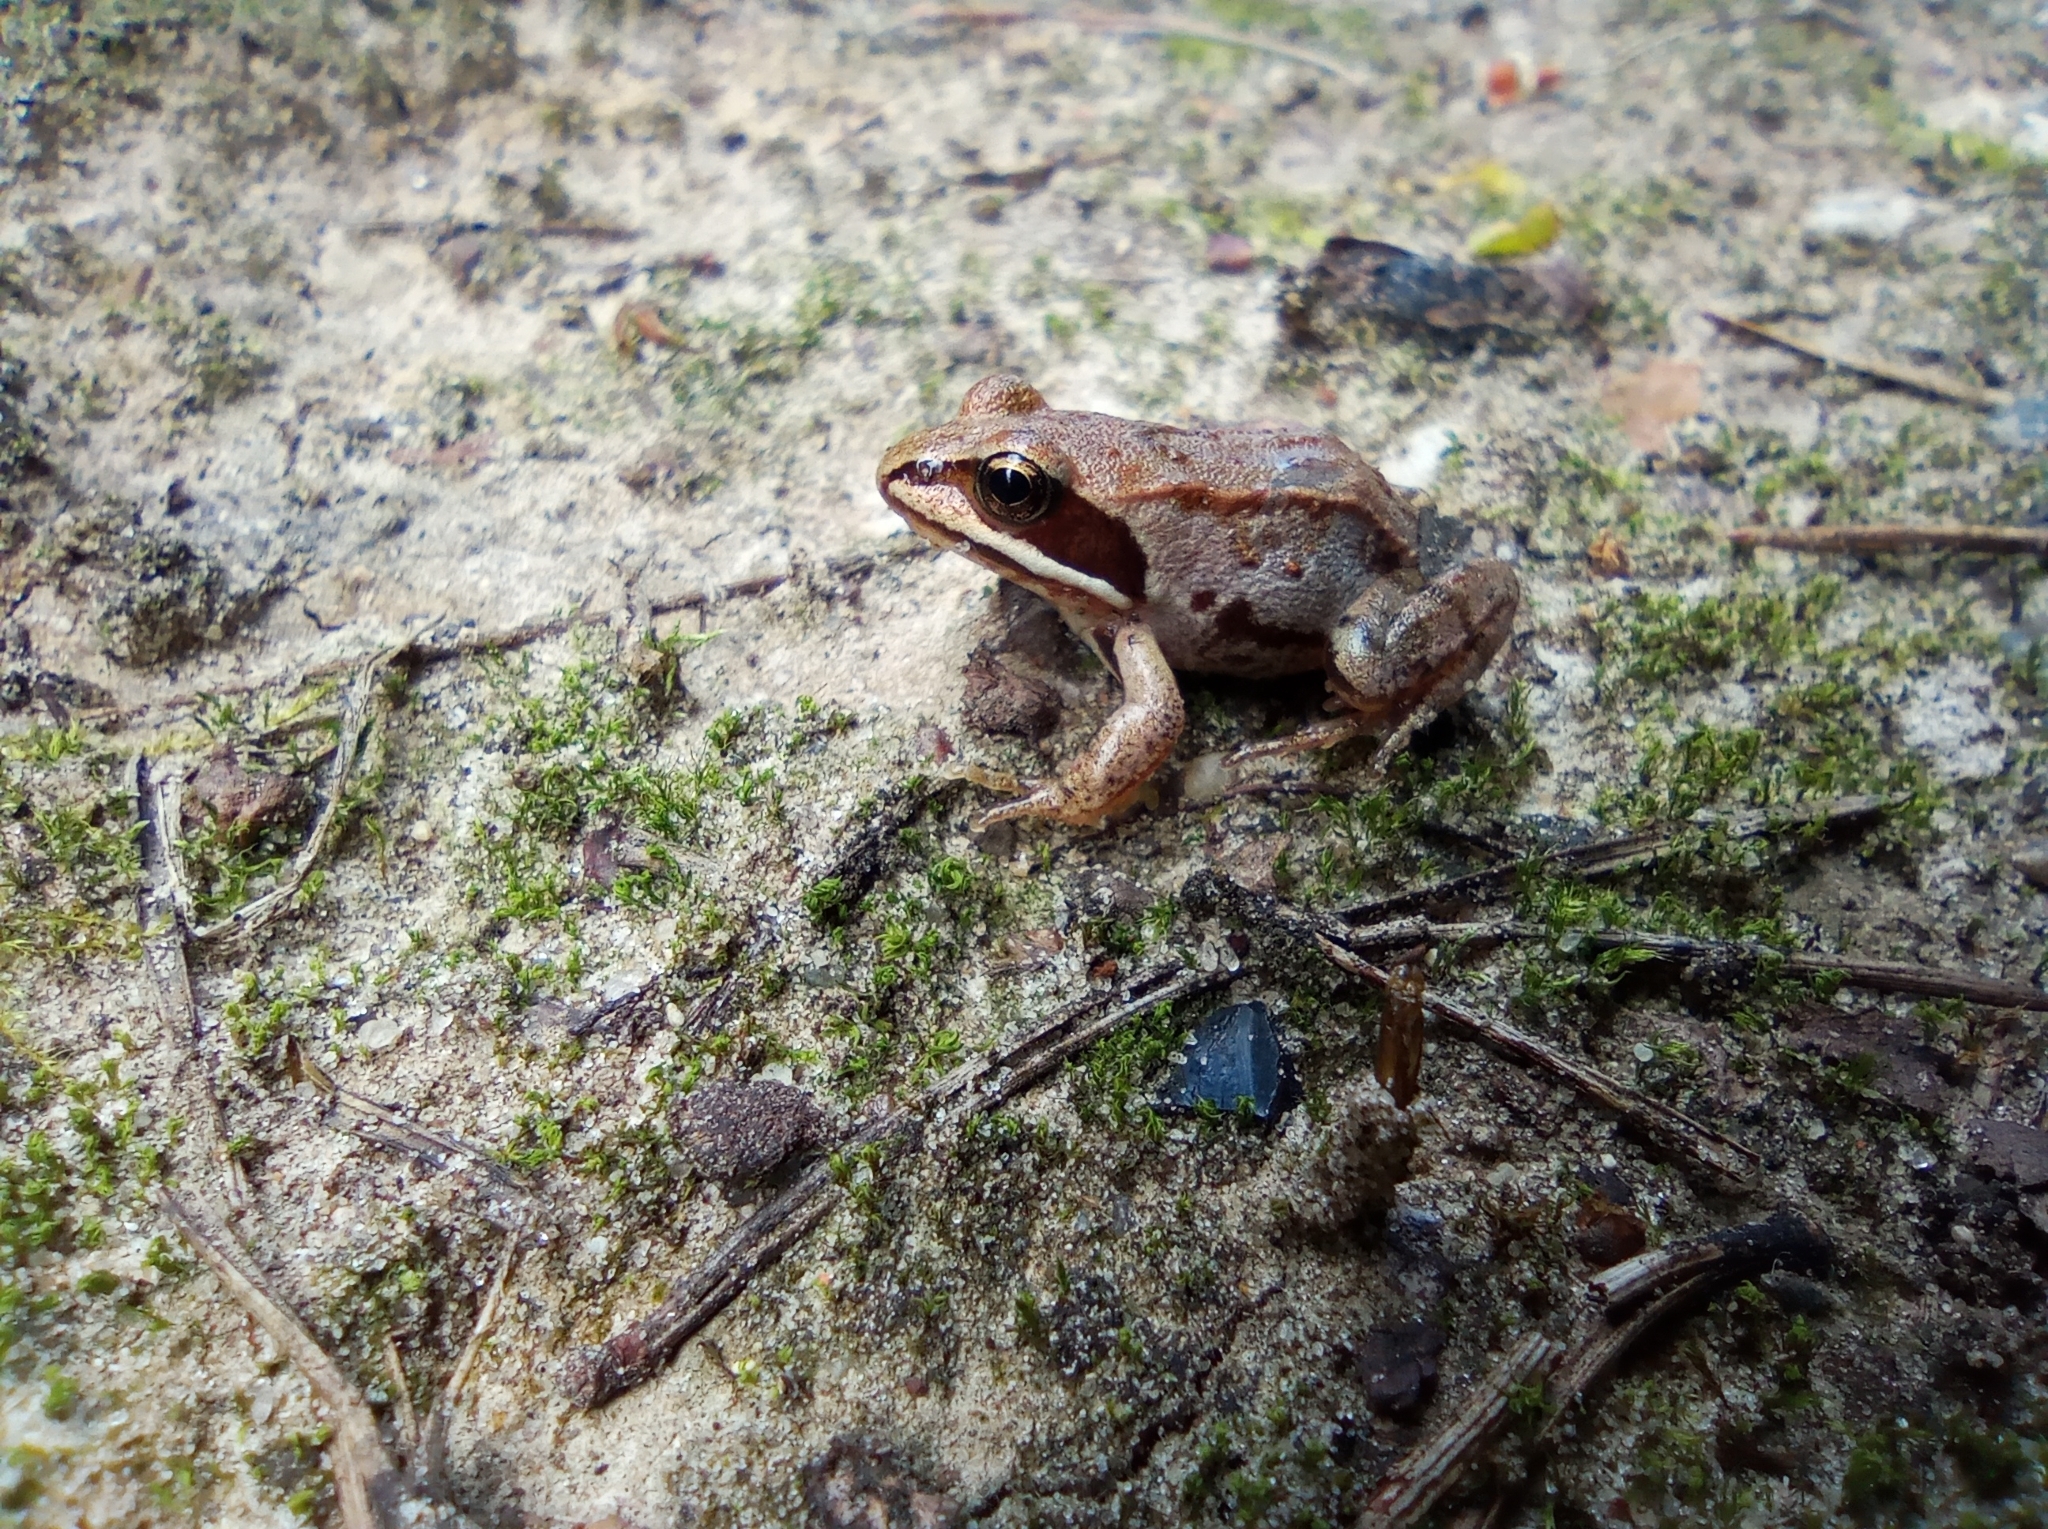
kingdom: Animalia
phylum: Chordata
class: Amphibia
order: Anura
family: Ranidae
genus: Rana
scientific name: Rana arvalis
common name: Moor frog
